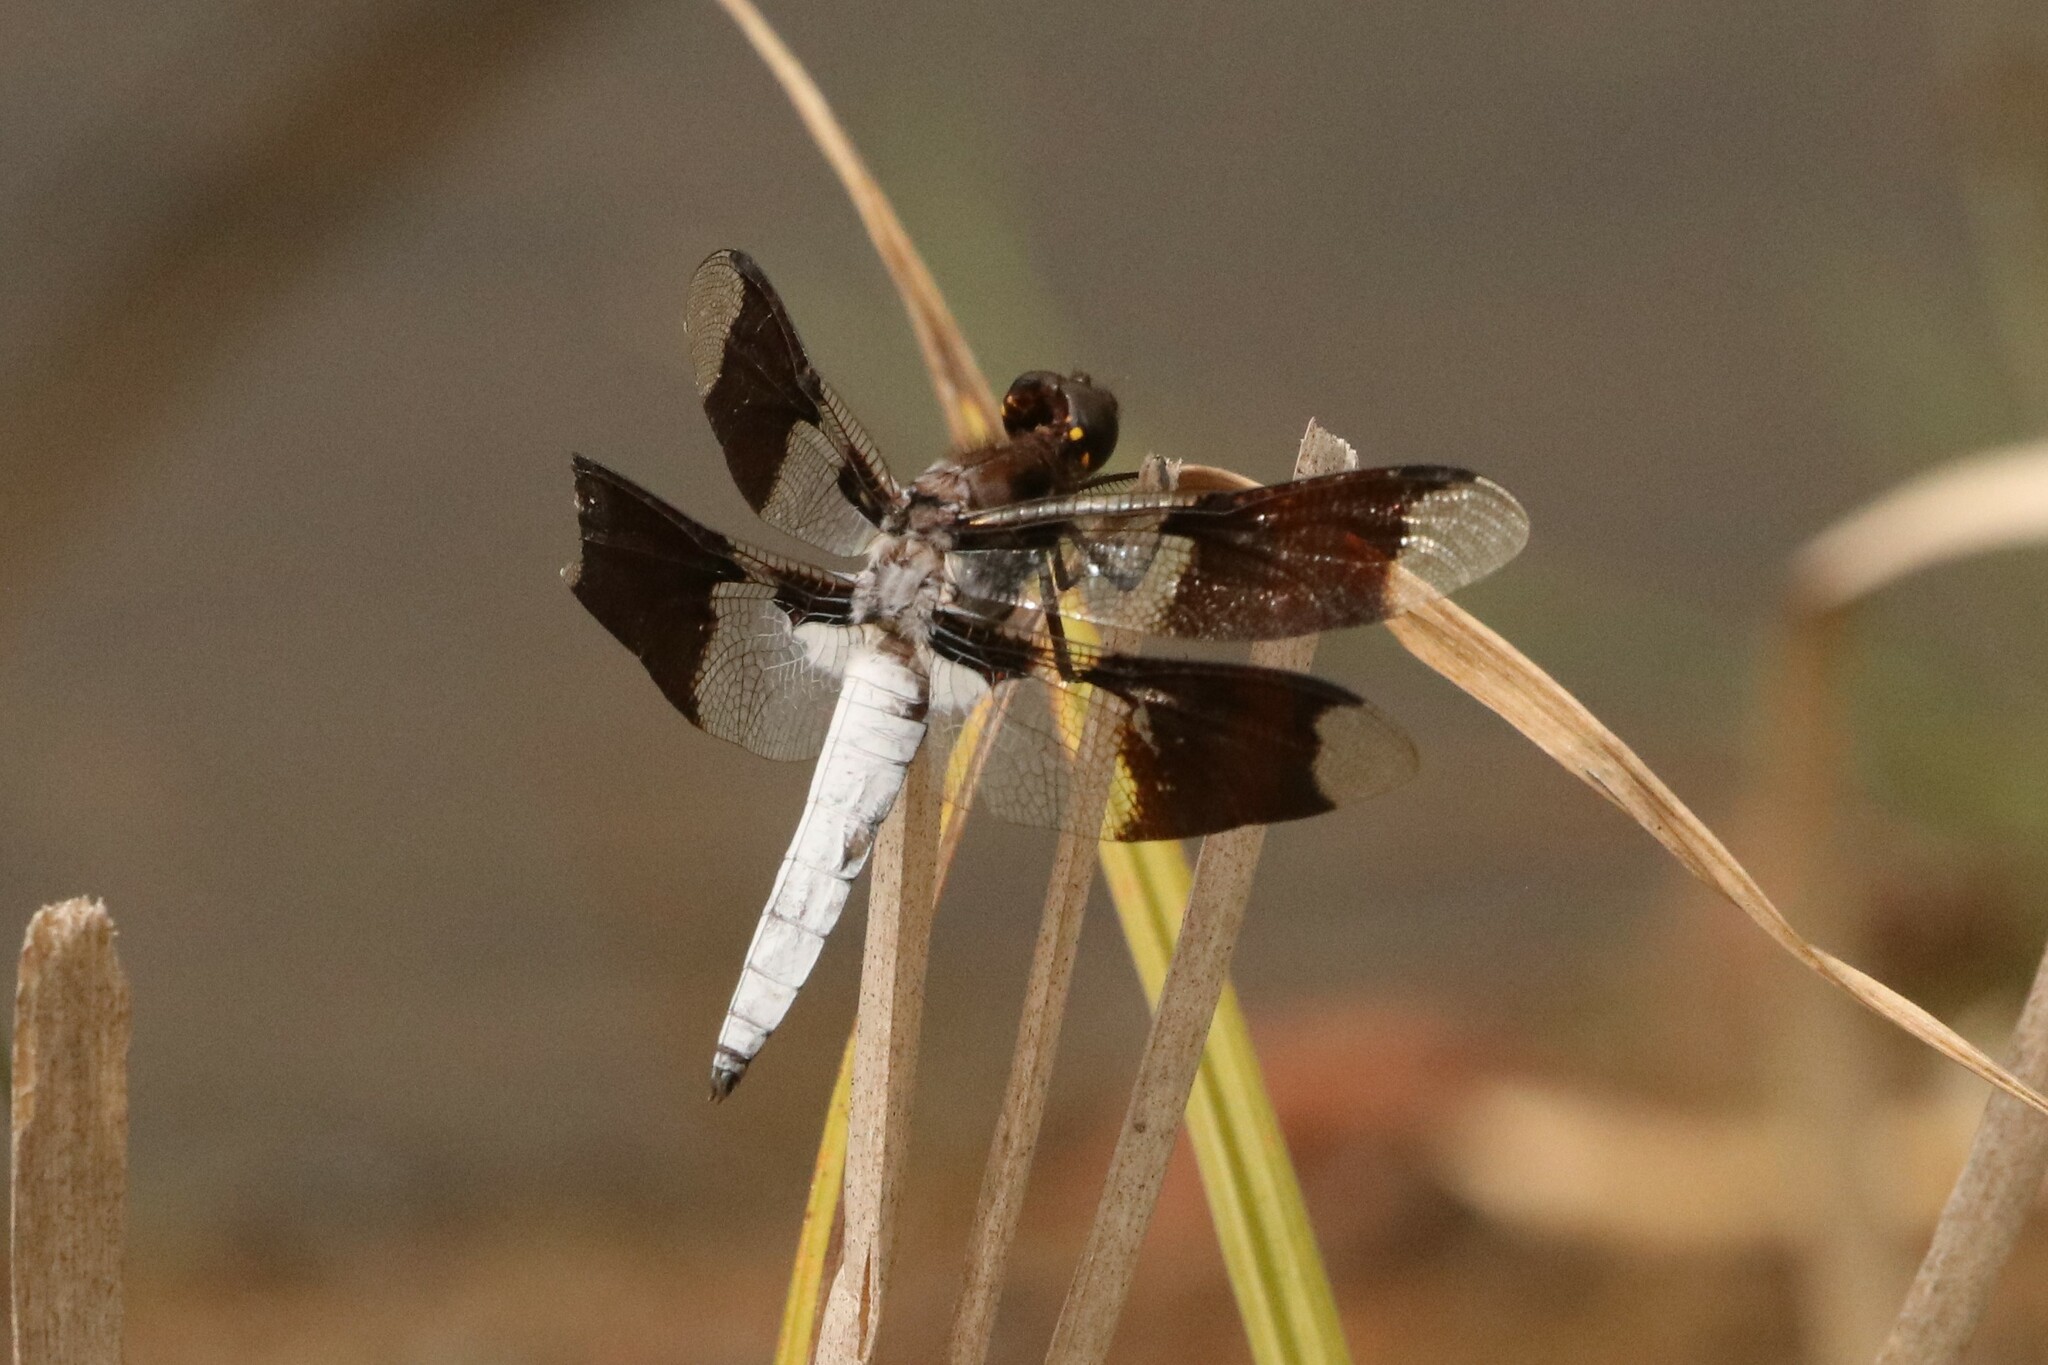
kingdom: Animalia
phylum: Arthropoda
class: Insecta
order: Odonata
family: Libellulidae
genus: Plathemis
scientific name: Plathemis lydia
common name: Common whitetail
